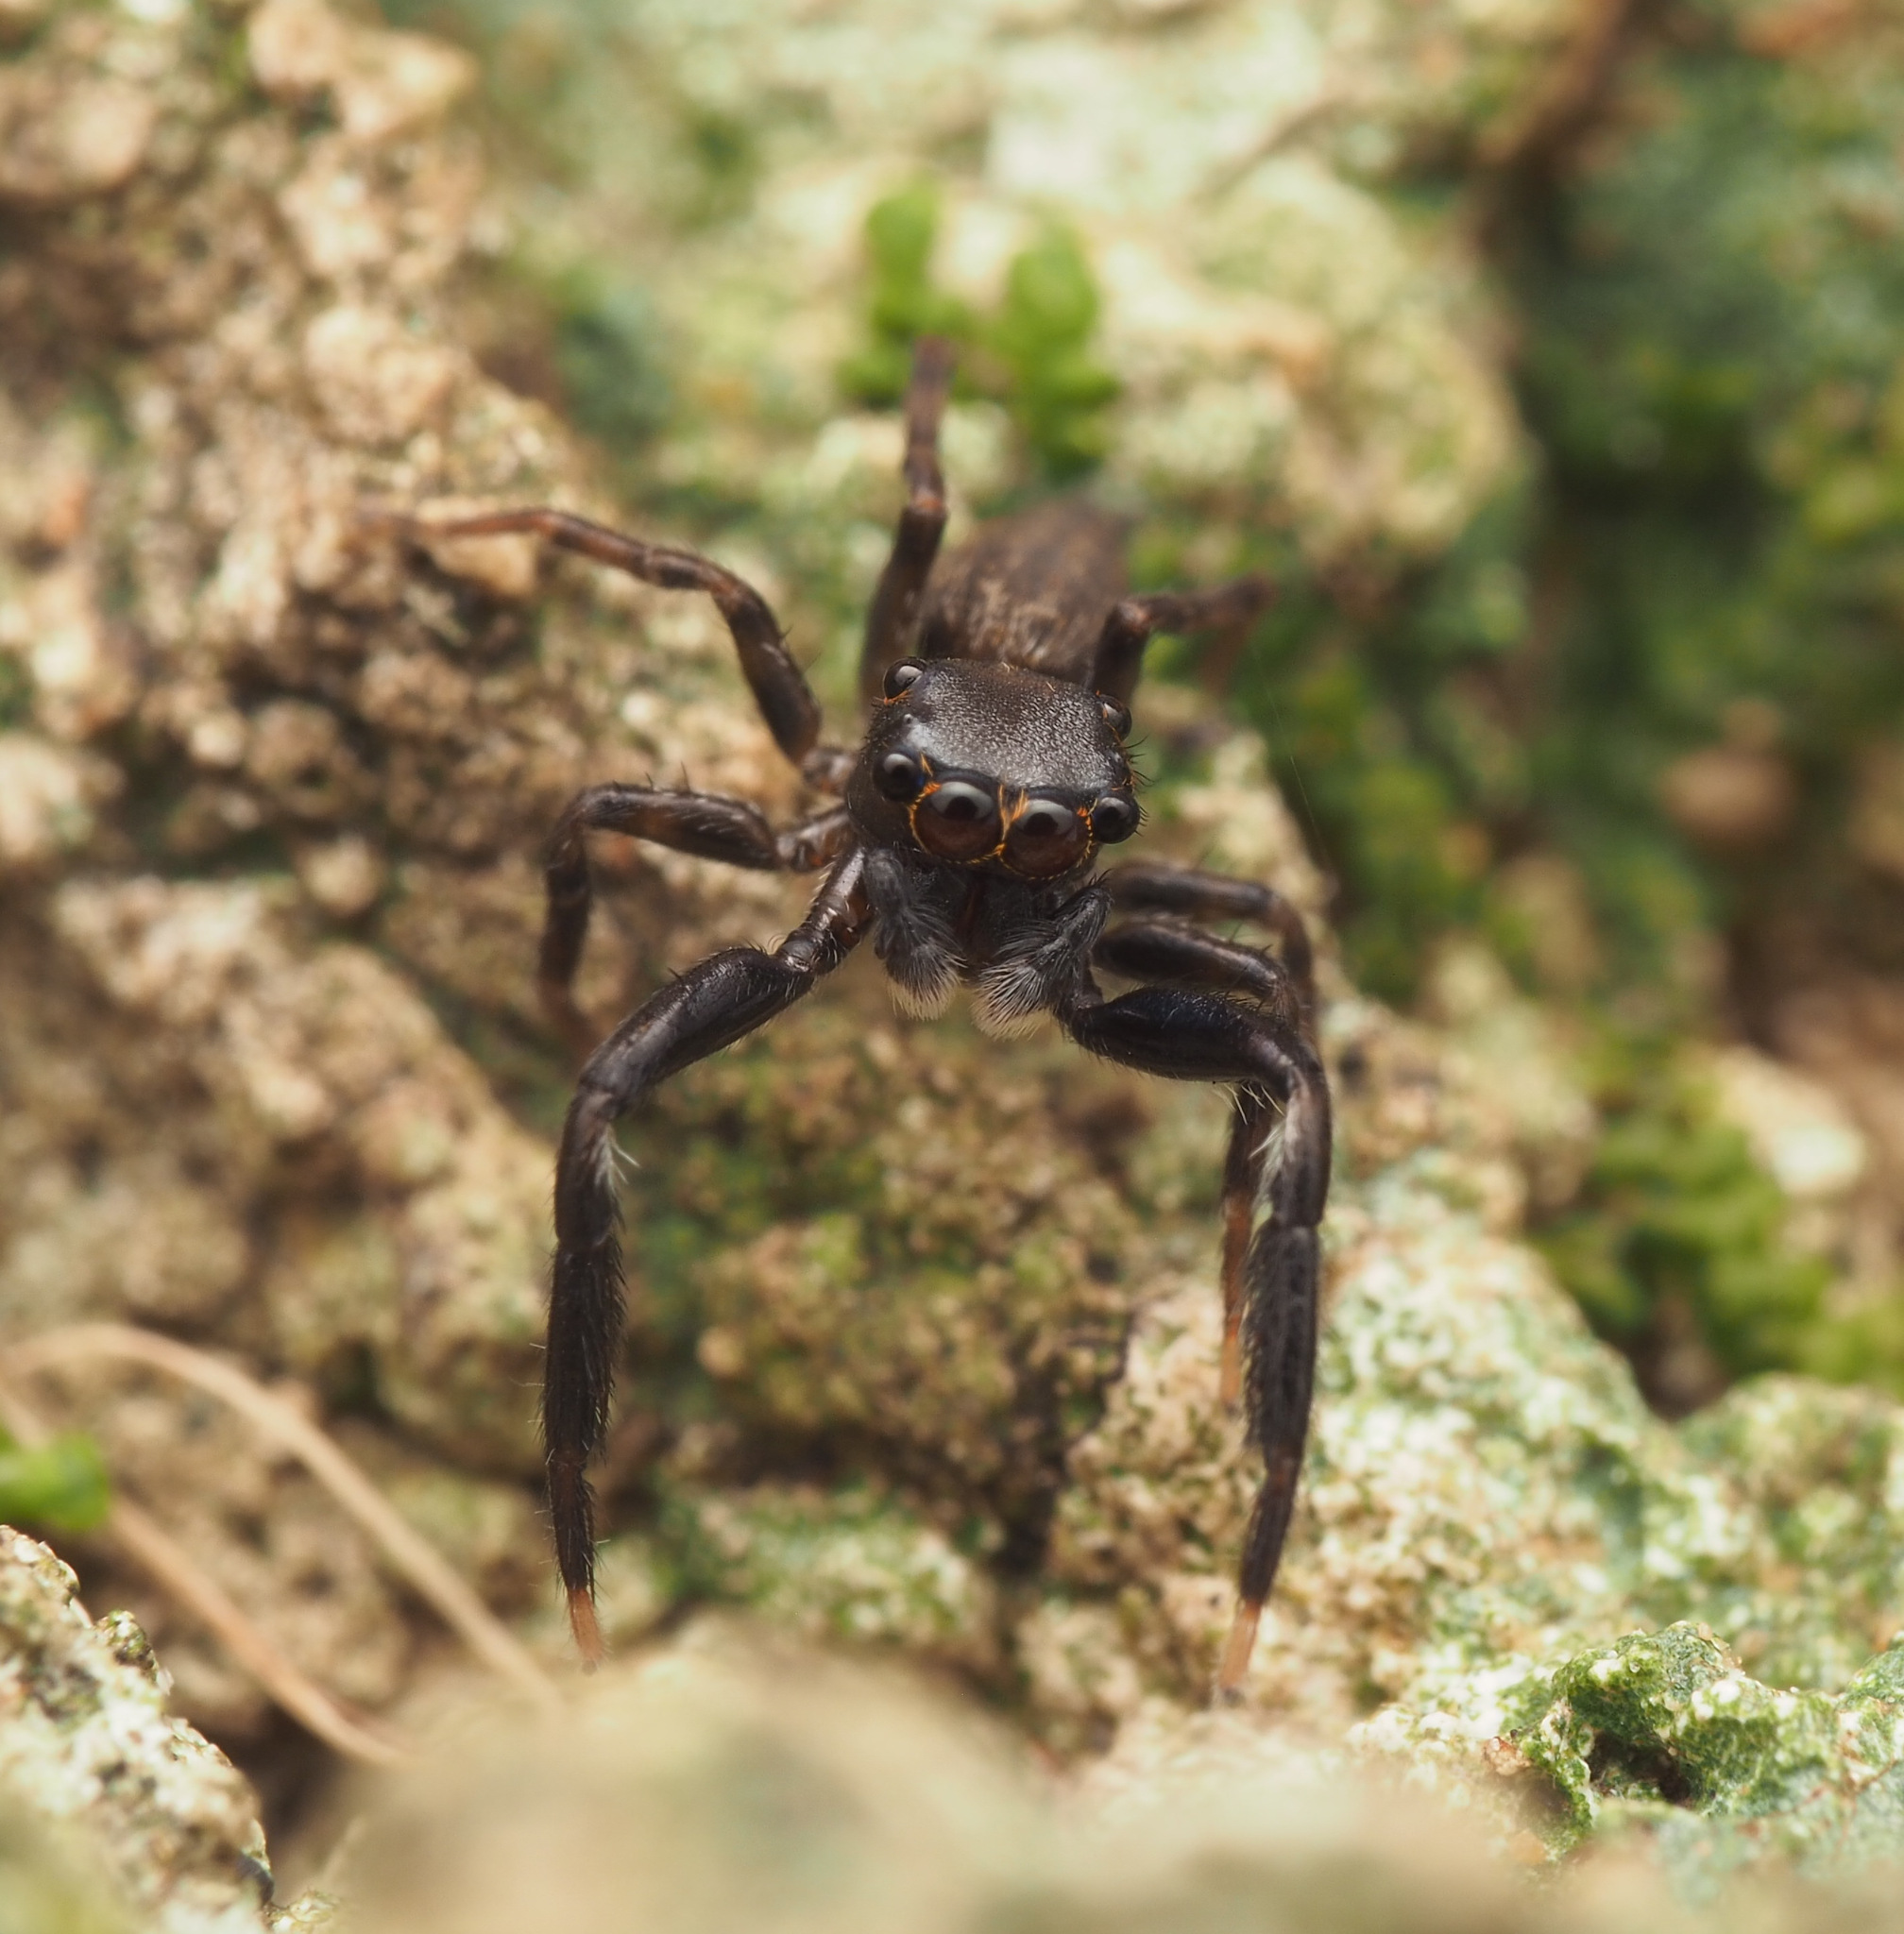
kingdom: Animalia
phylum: Arthropoda
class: Arachnida
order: Araneae
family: Salticidae
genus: Sondra
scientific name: Sondra aurea
